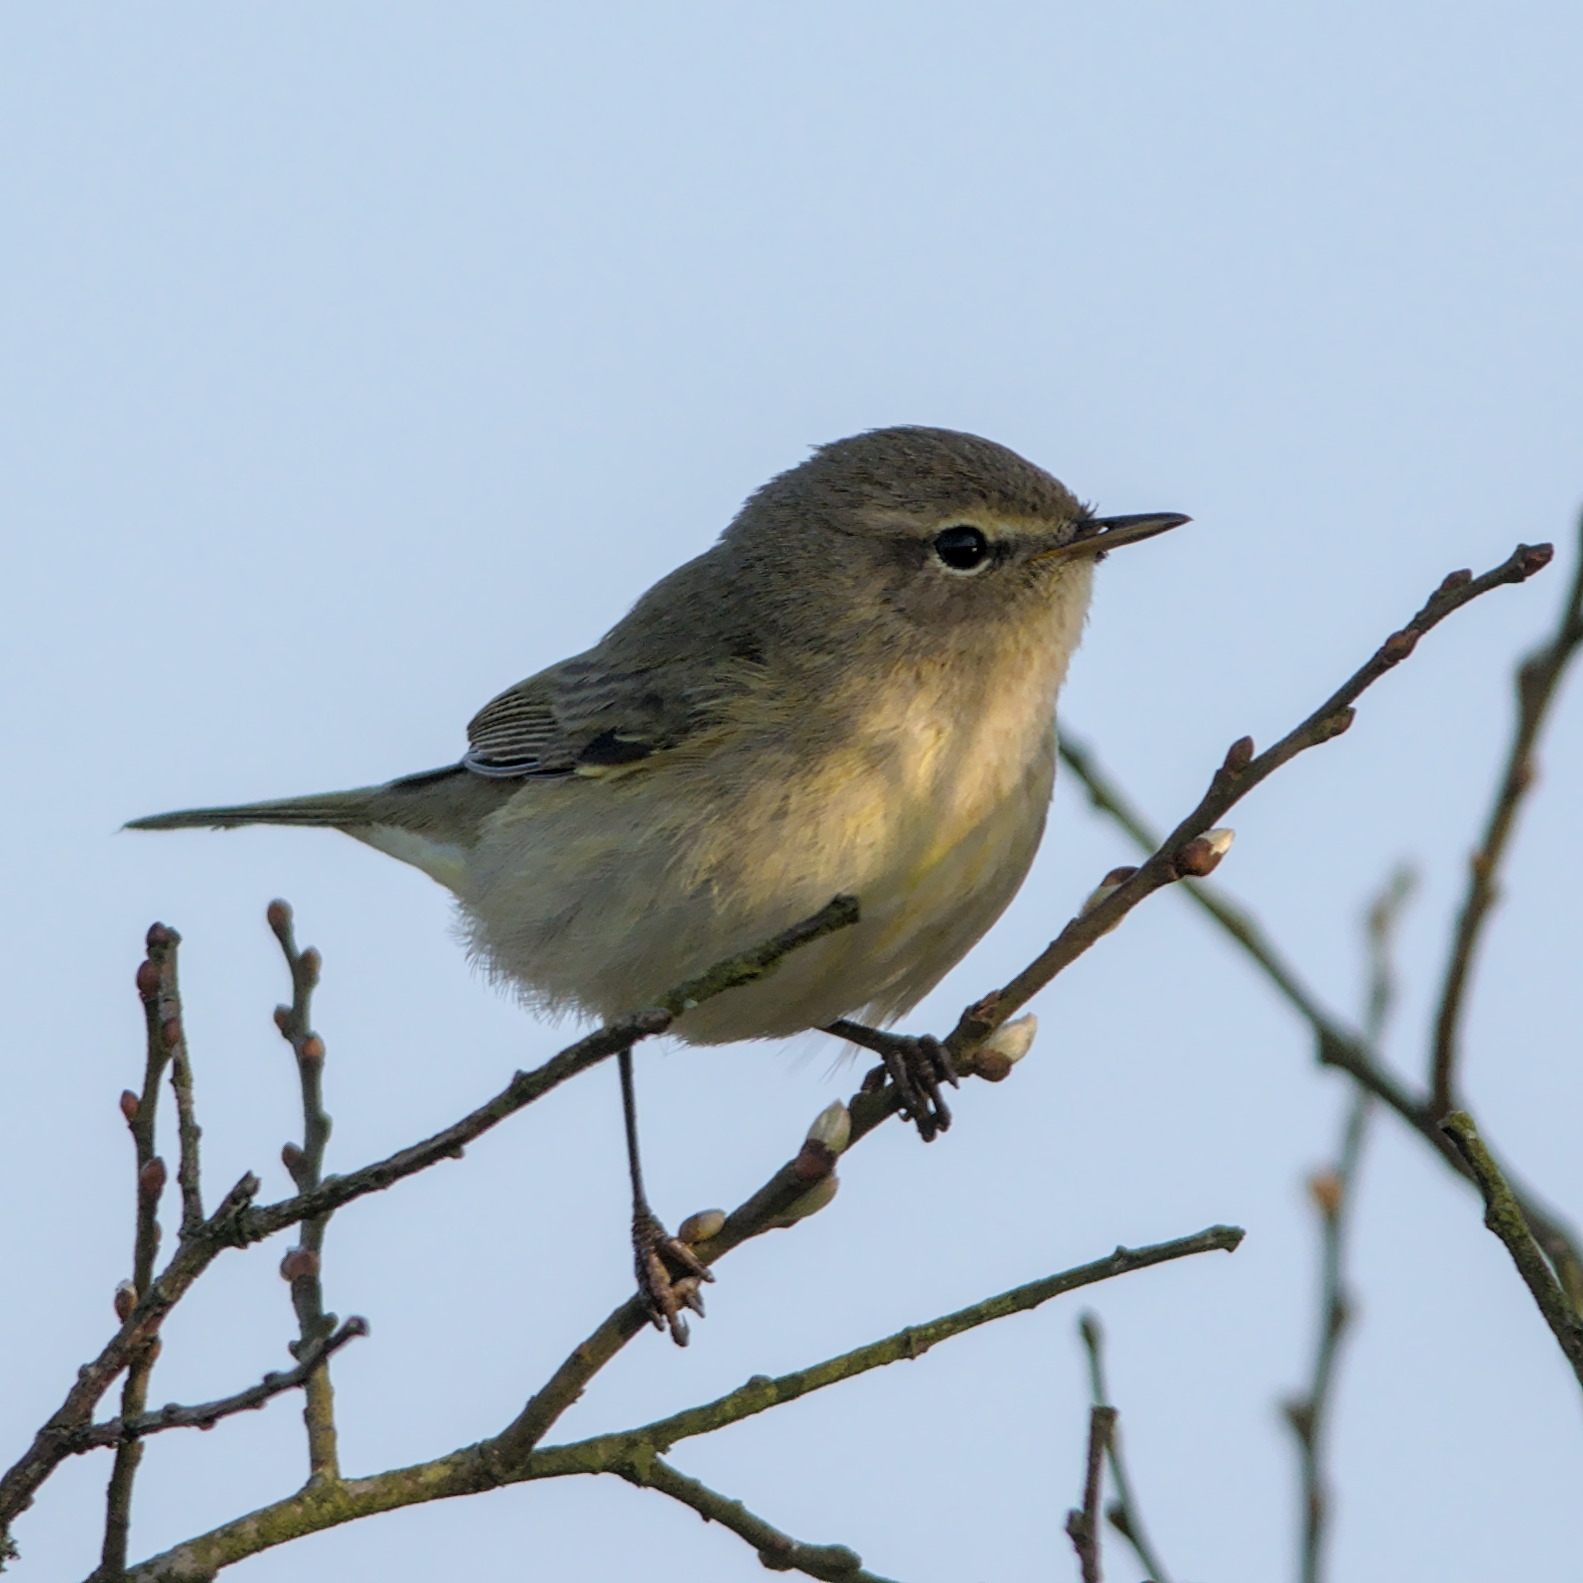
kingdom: Animalia
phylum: Chordata
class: Aves
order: Passeriformes
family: Phylloscopidae
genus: Phylloscopus
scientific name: Phylloscopus collybita
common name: Common chiffchaff
